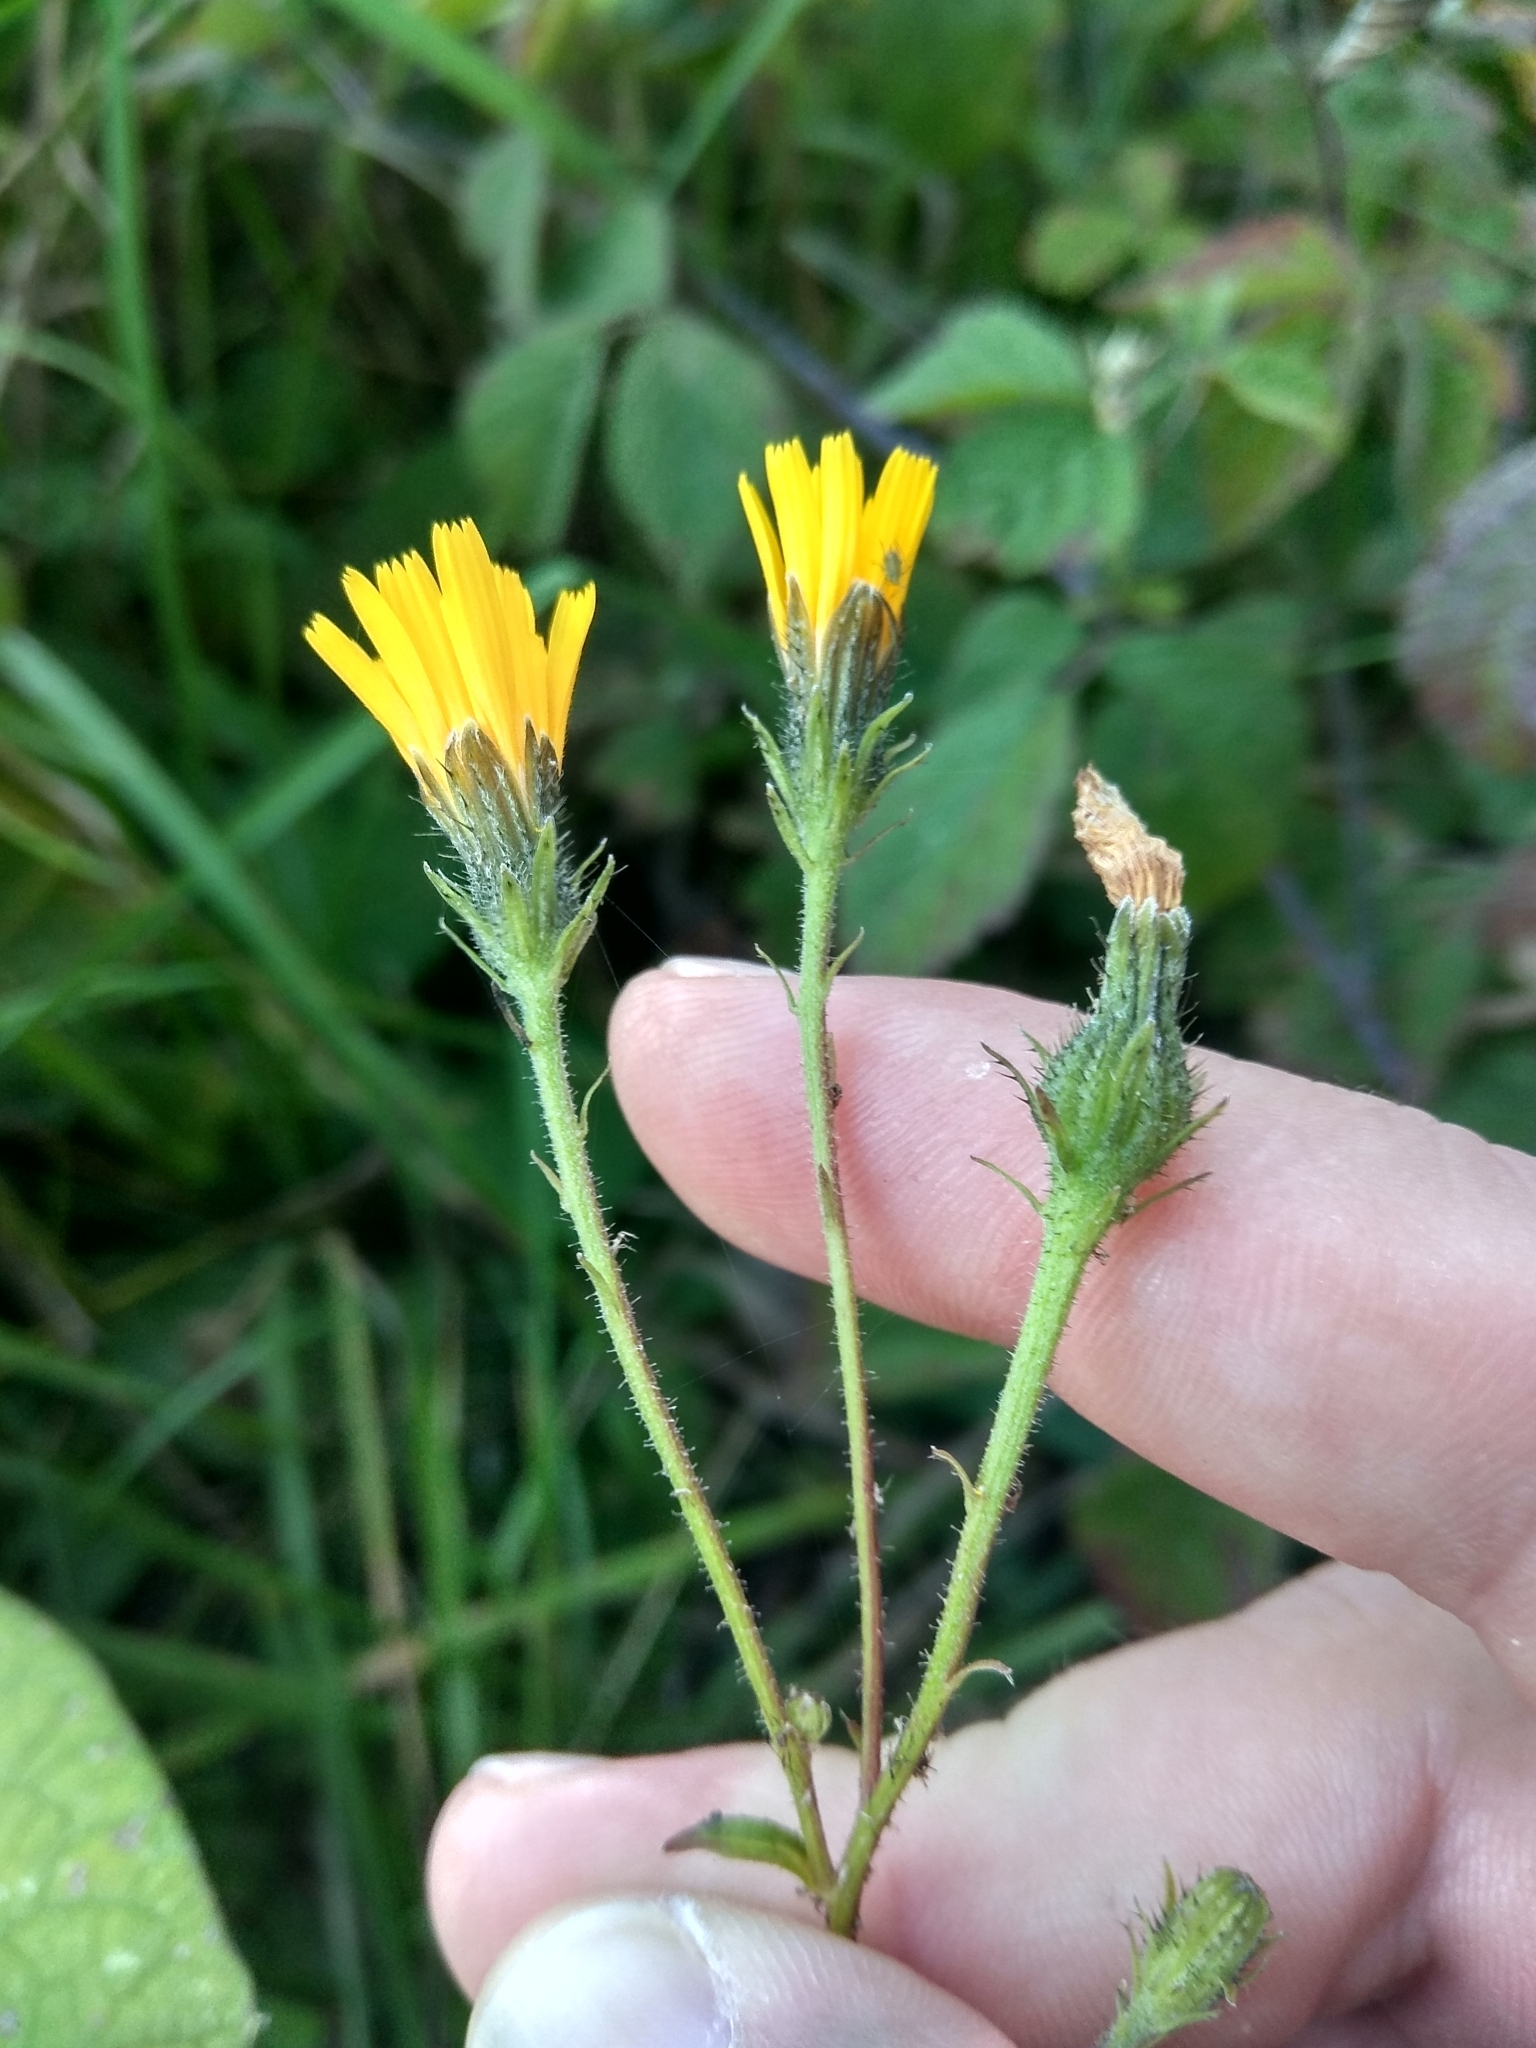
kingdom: Plantae
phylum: Tracheophyta
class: Magnoliopsida
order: Asterales
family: Asteraceae
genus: Picris
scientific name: Picris hieracioides
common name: Hawkweed oxtongue
